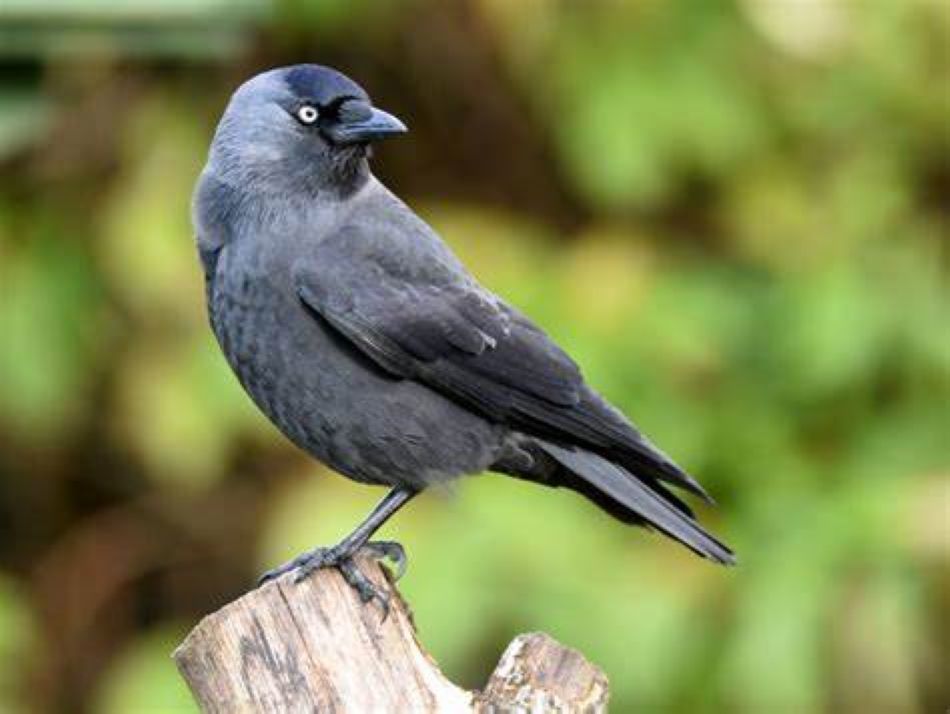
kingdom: Animalia
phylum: Chordata
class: Aves
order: Passeriformes
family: Corvidae
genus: Coloeus
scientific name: Coloeus monedula
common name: Western jackdaw
